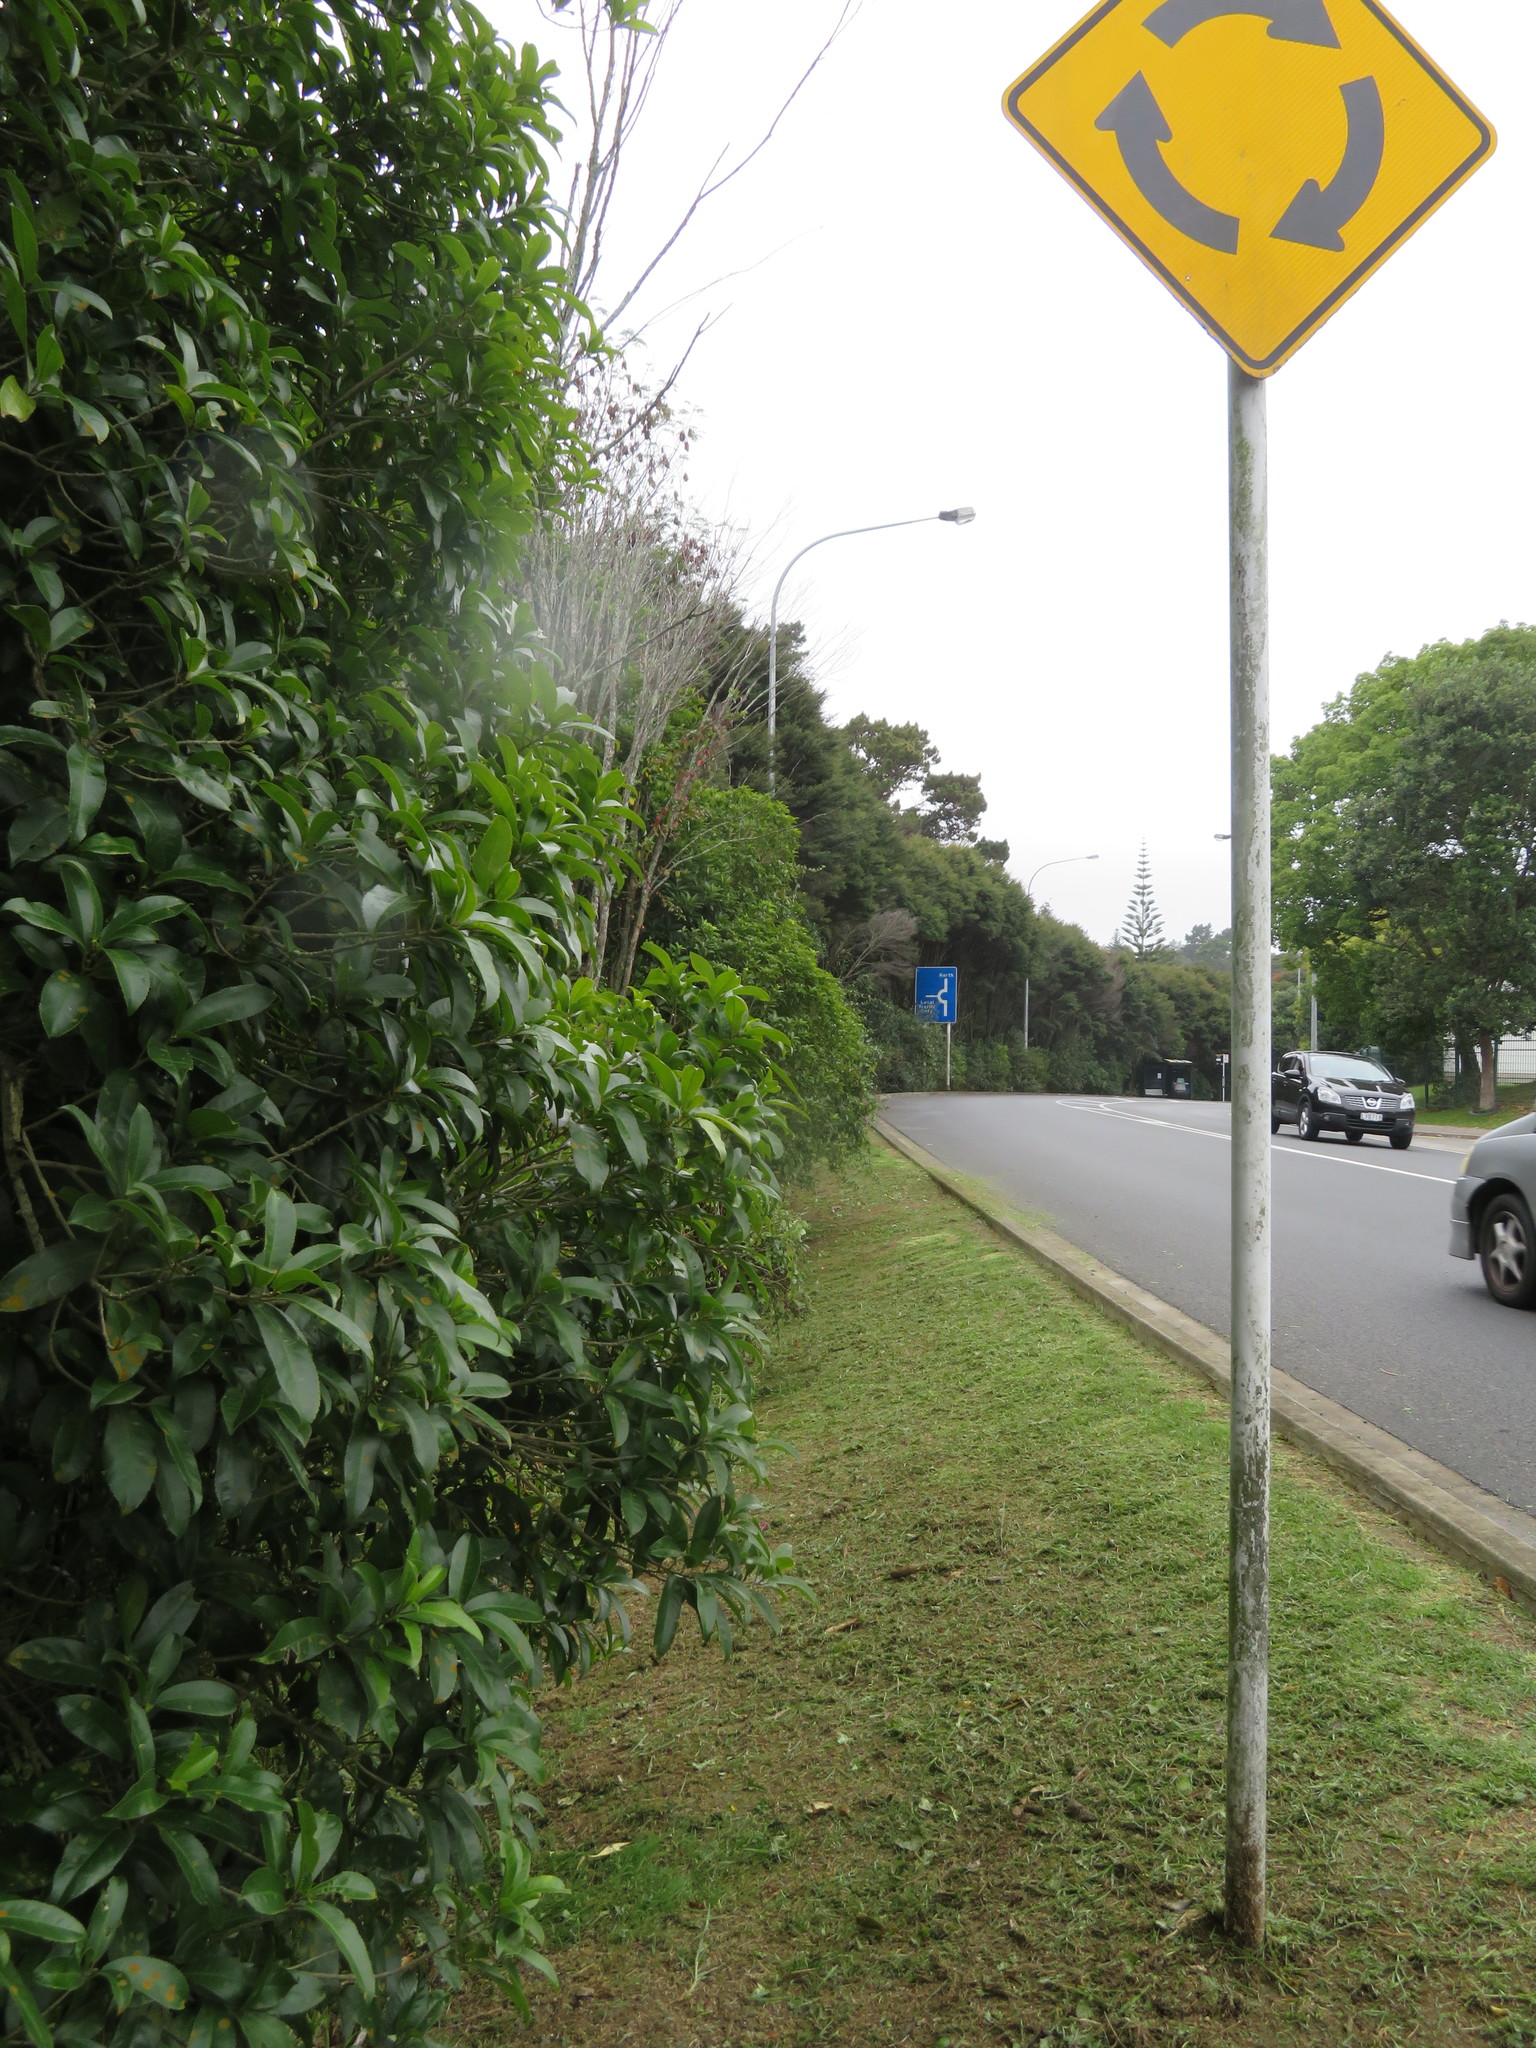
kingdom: Plantae
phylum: Tracheophyta
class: Magnoliopsida
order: Malpighiales
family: Violaceae
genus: Melicytus
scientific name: Melicytus ramiflorus
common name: Mahoe
